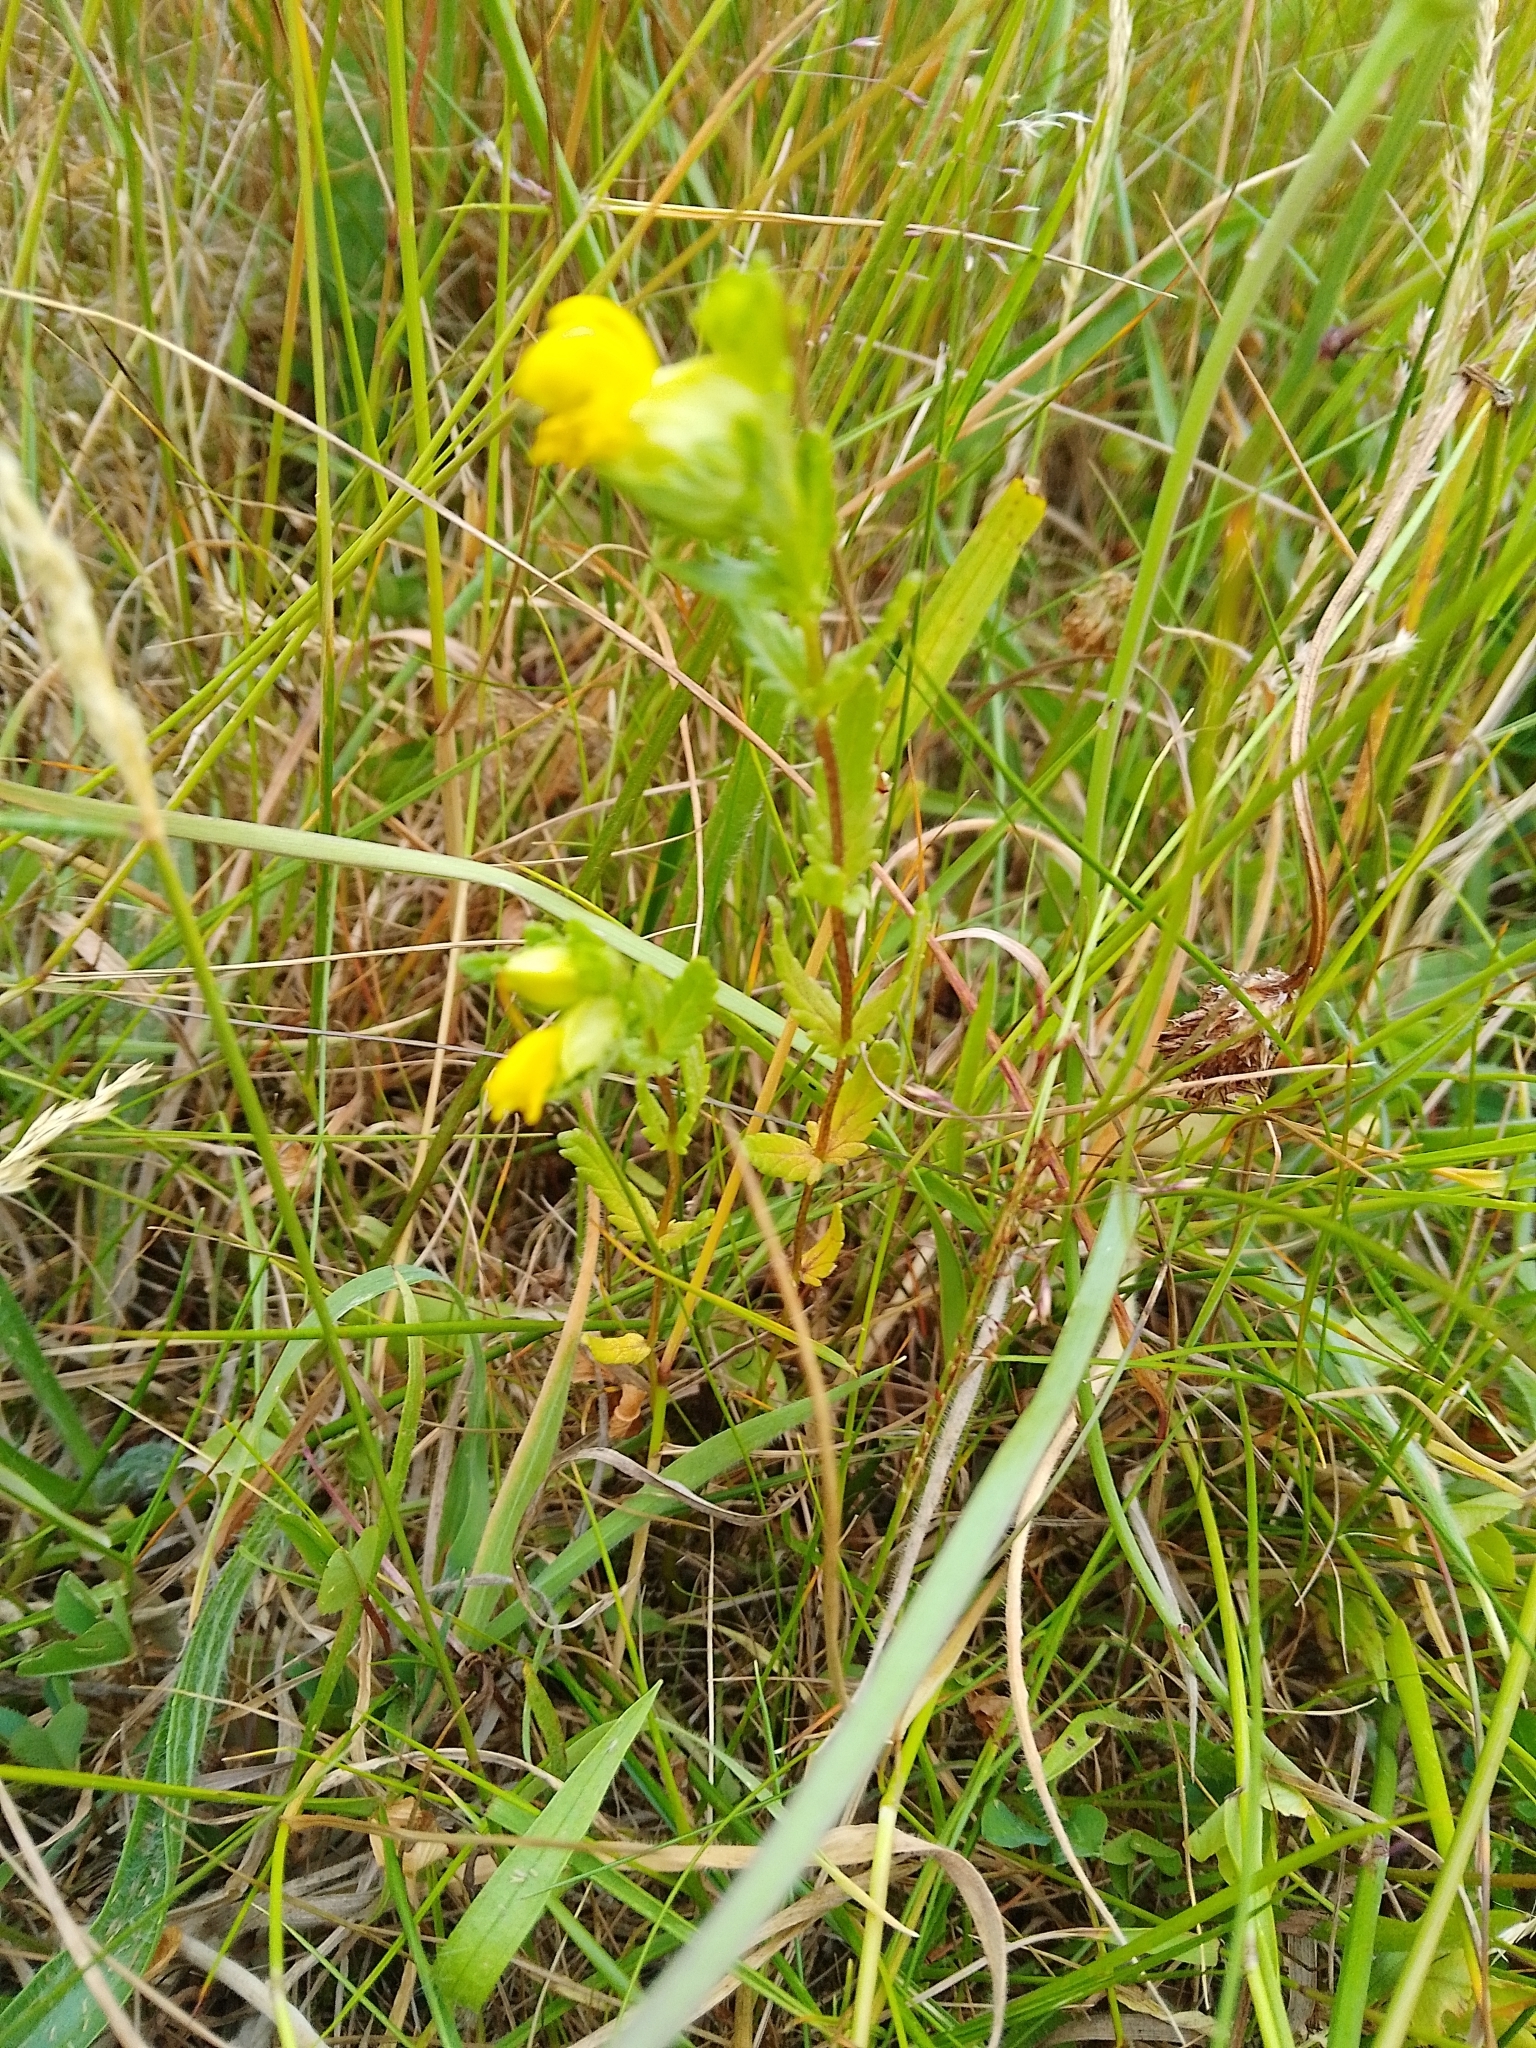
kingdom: Plantae
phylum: Tracheophyta
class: Magnoliopsida
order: Lamiales
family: Orobanchaceae
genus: Rhinanthus
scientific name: Rhinanthus minor
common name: Yellow-rattle
